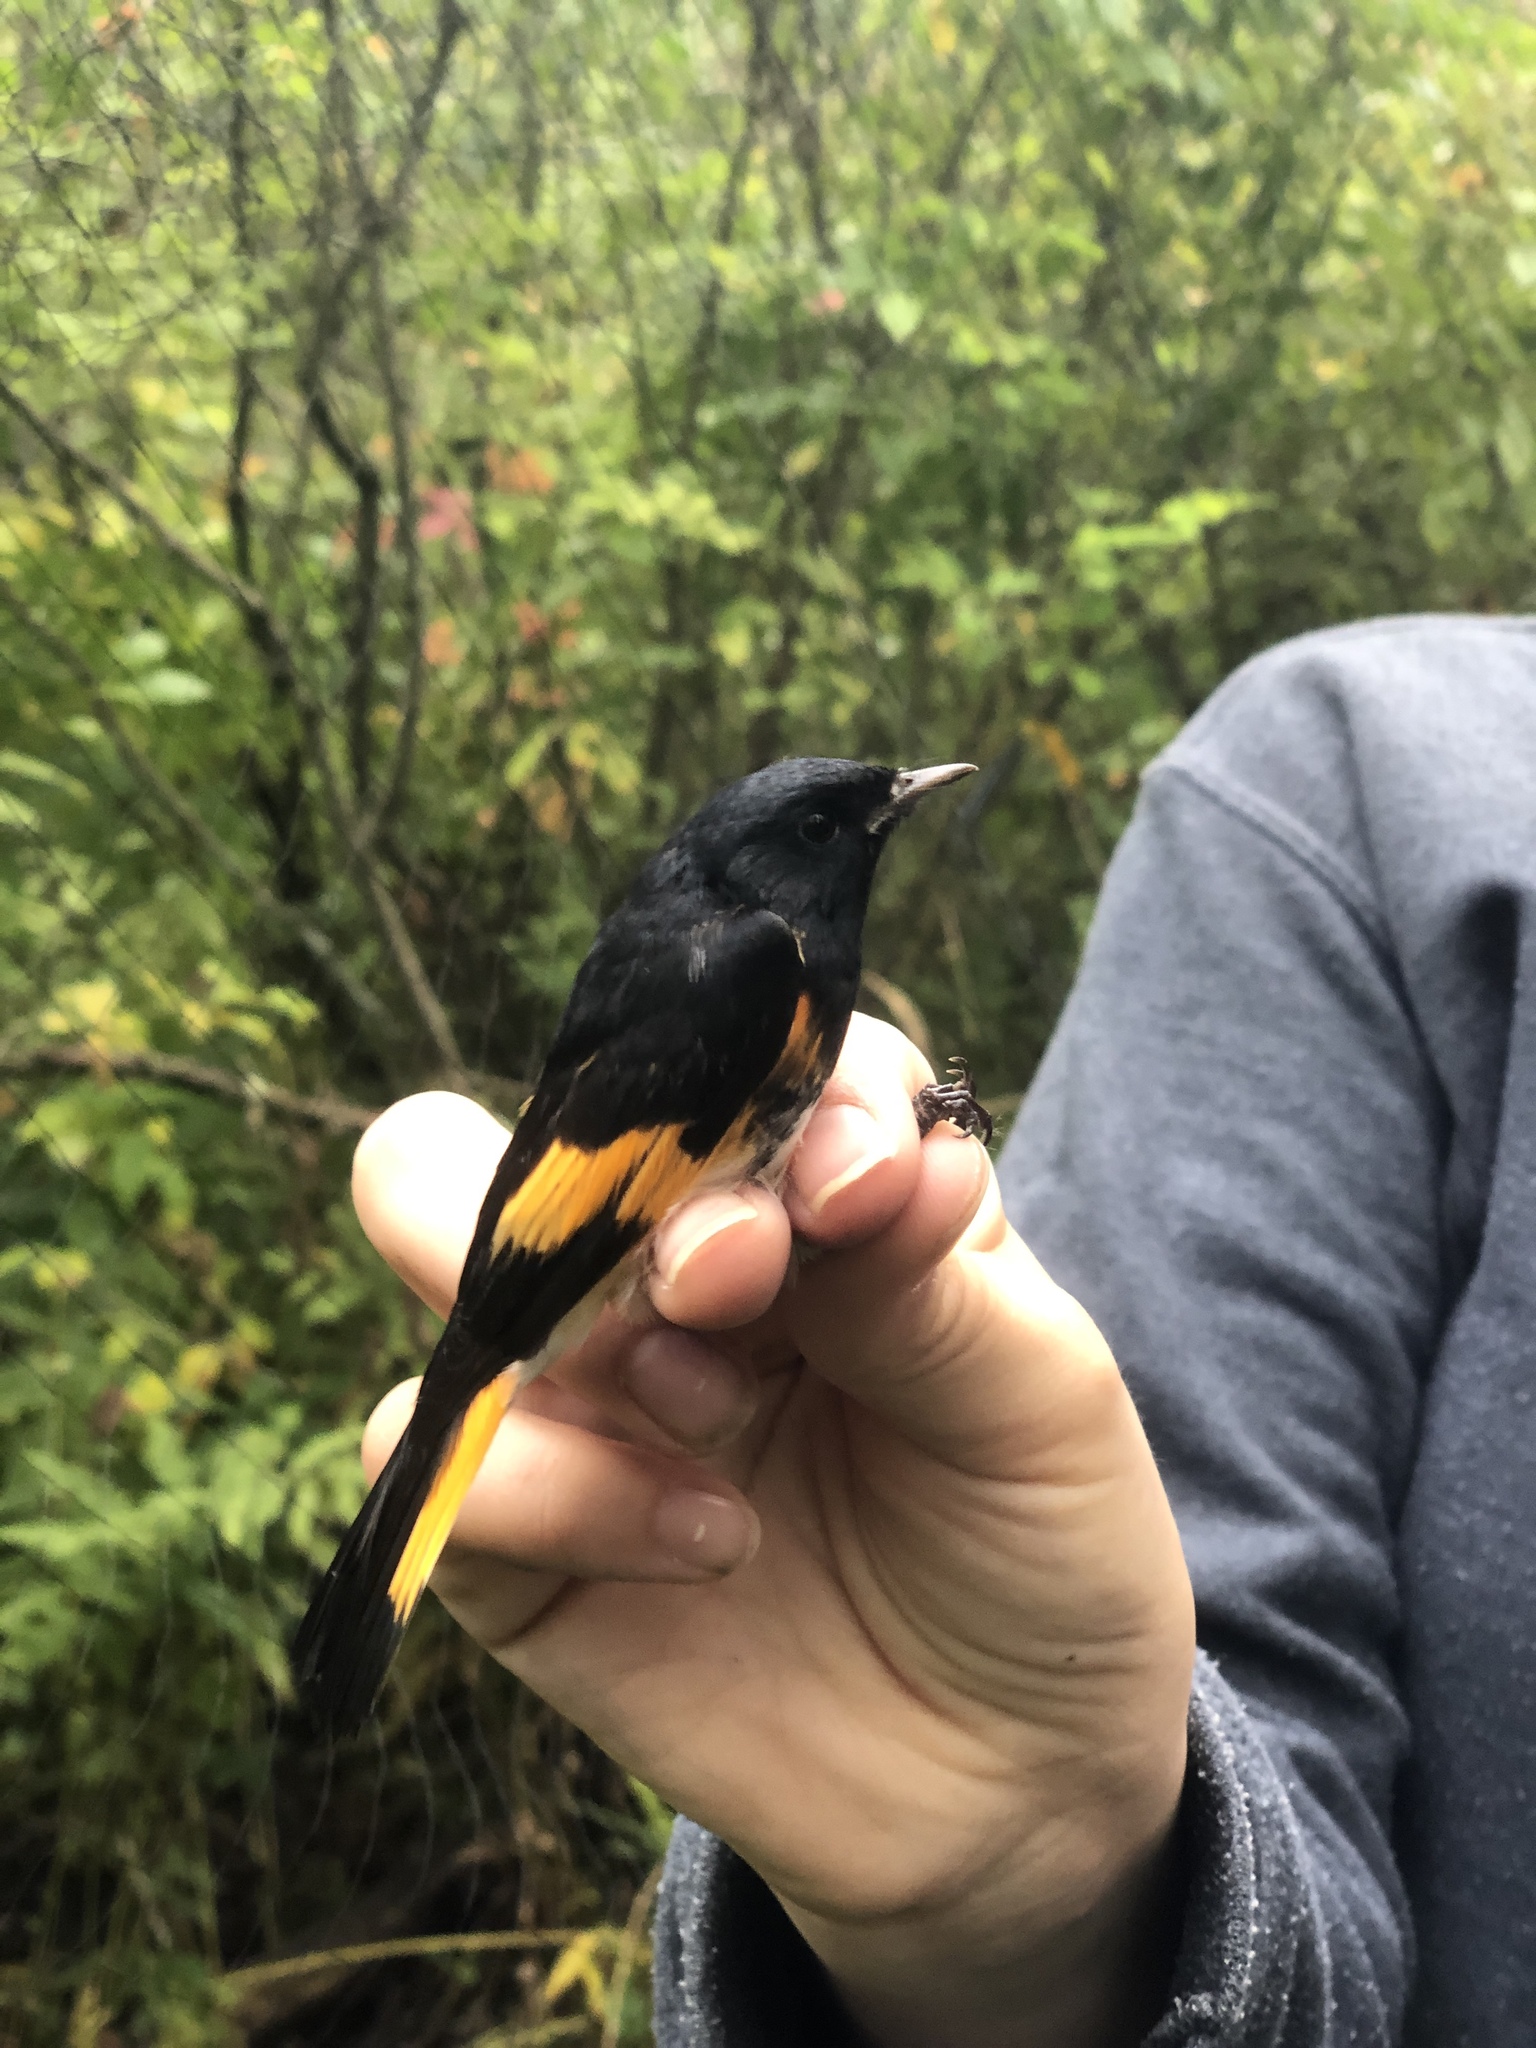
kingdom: Animalia
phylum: Chordata
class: Aves
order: Passeriformes
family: Parulidae
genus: Setophaga
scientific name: Setophaga ruticilla
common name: American redstart
